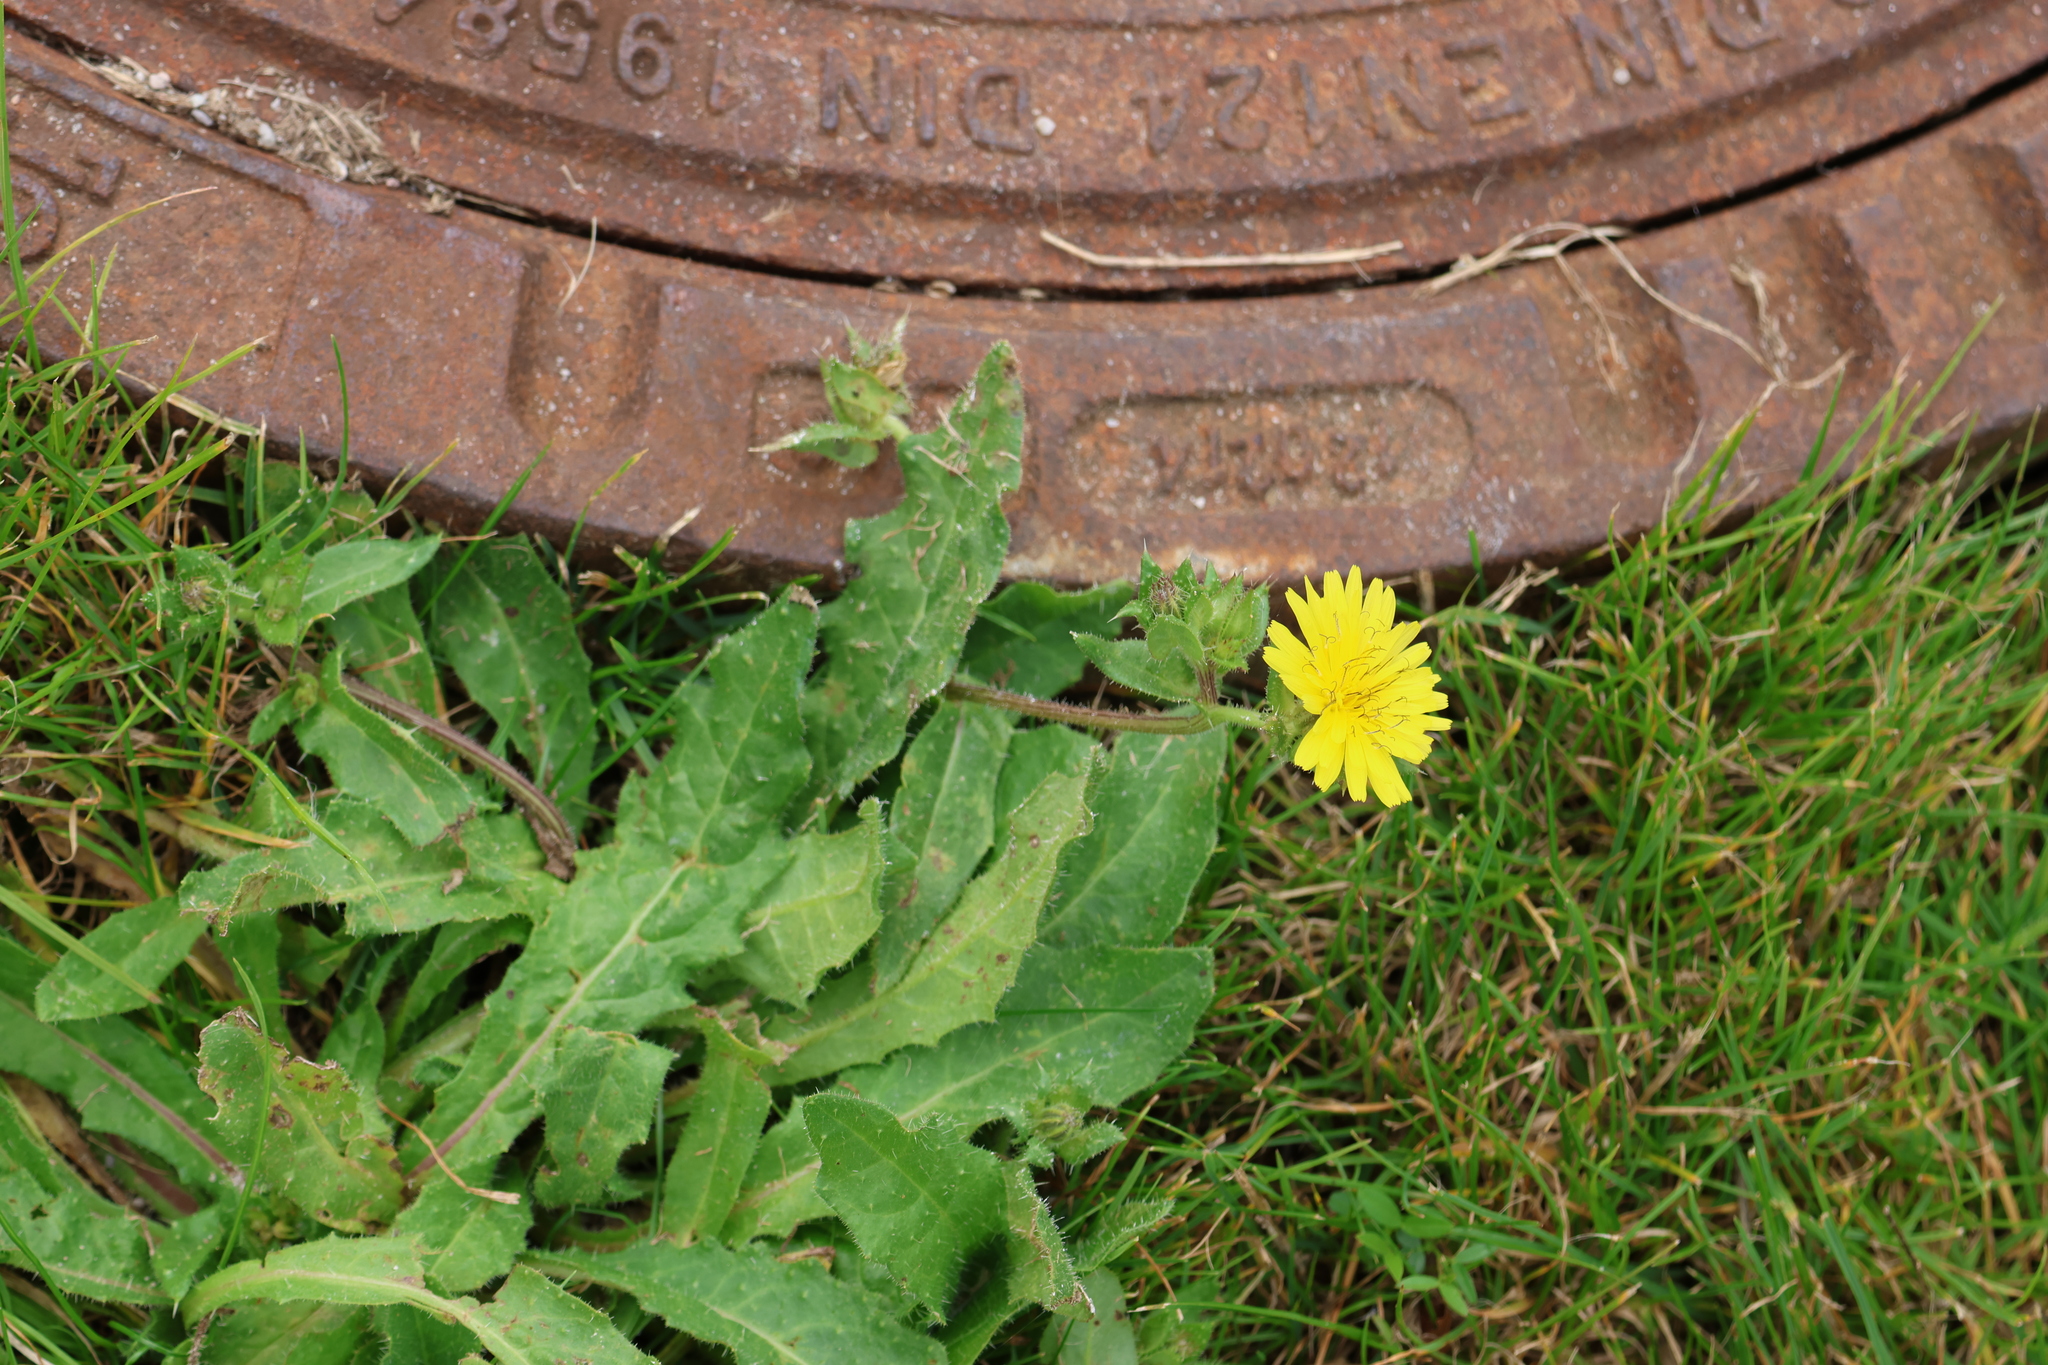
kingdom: Plantae
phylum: Tracheophyta
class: Magnoliopsida
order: Asterales
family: Asteraceae
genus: Helminthotheca
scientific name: Helminthotheca echioides
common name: Ox-tongue
